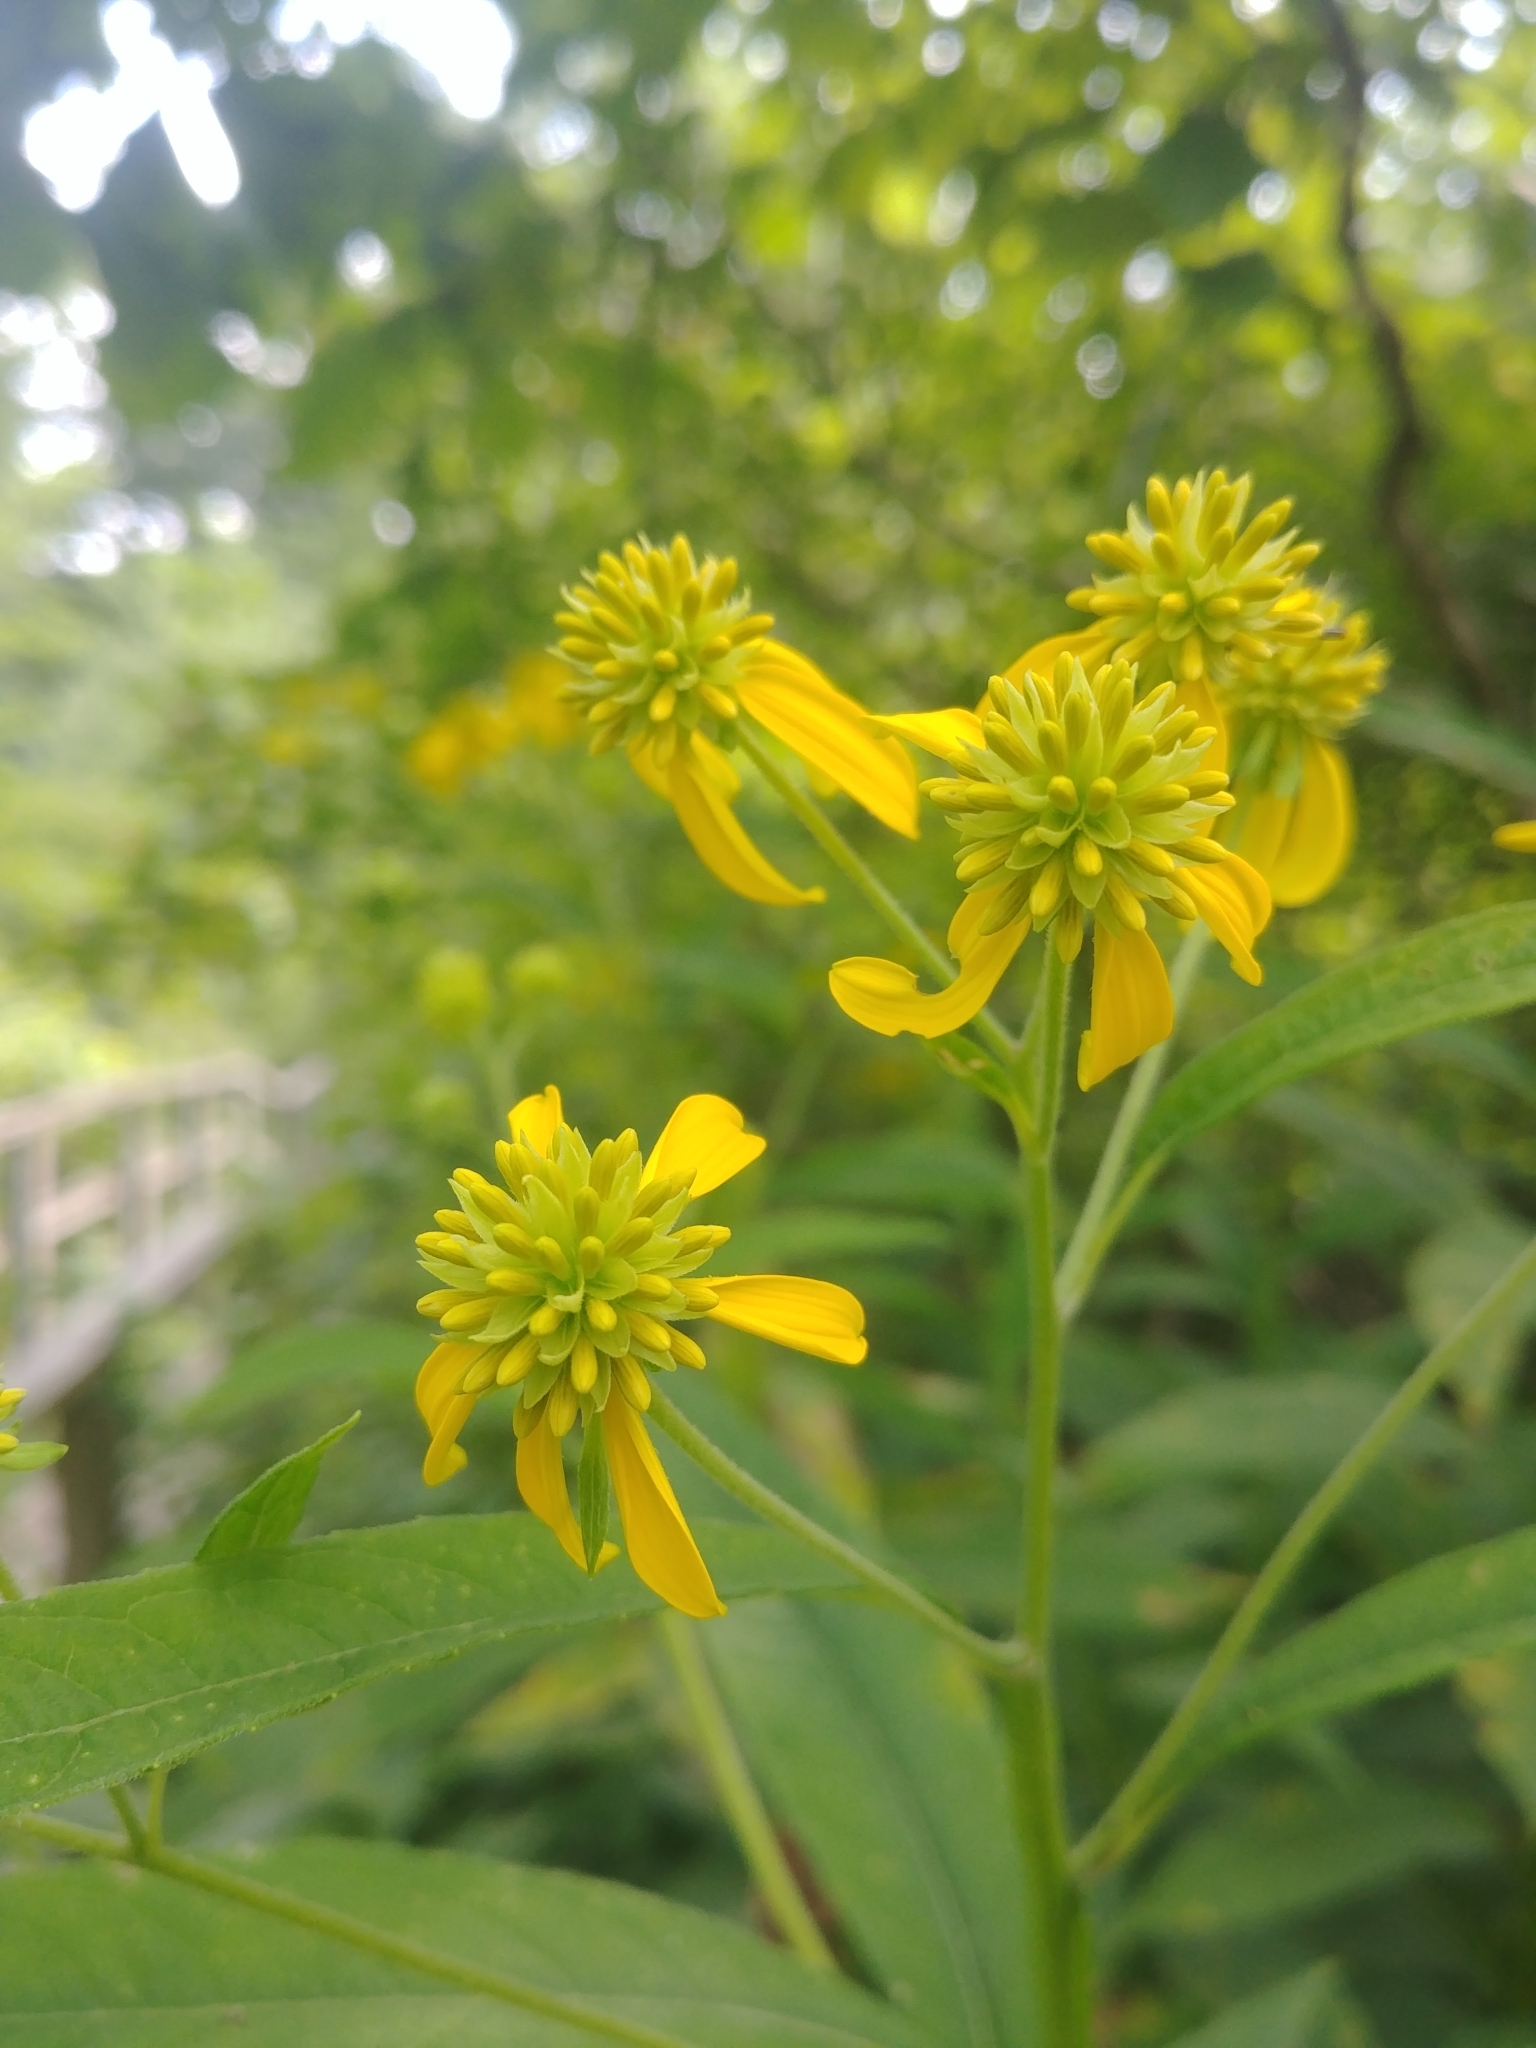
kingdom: Plantae
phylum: Tracheophyta
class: Magnoliopsida
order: Asterales
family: Asteraceae
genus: Verbesina
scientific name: Verbesina alternifolia
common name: Wingstem
